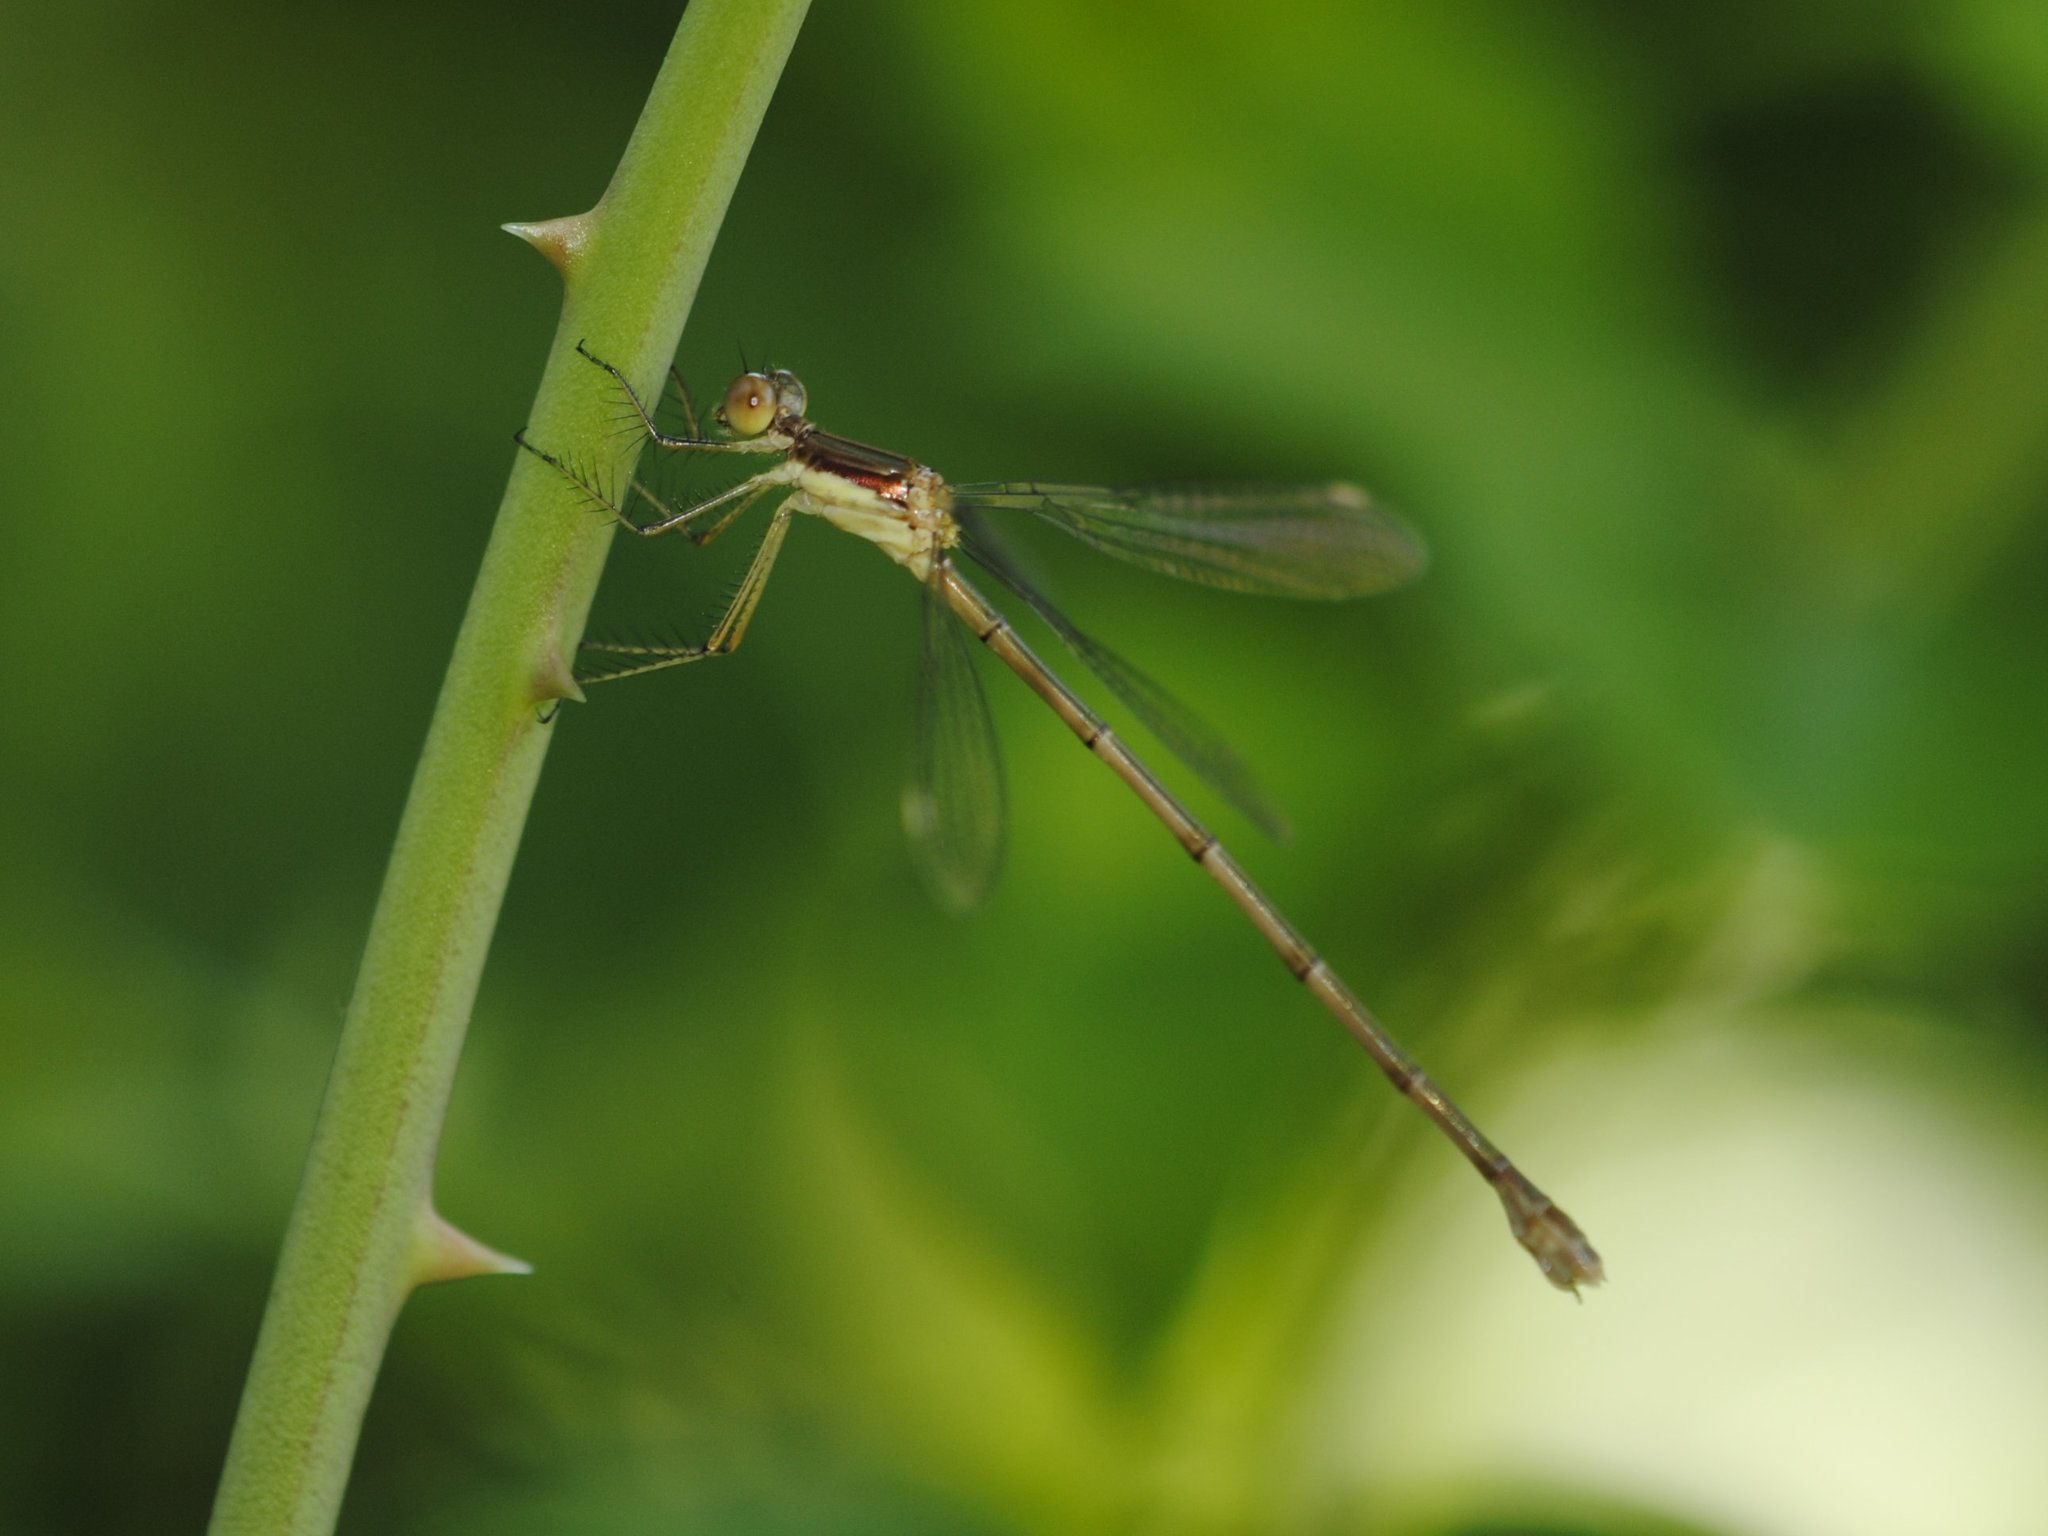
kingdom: Animalia
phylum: Arthropoda
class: Insecta
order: Odonata
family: Lestidae
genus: Lestes
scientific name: Lestes rectangularis
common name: Slender spreadwing
